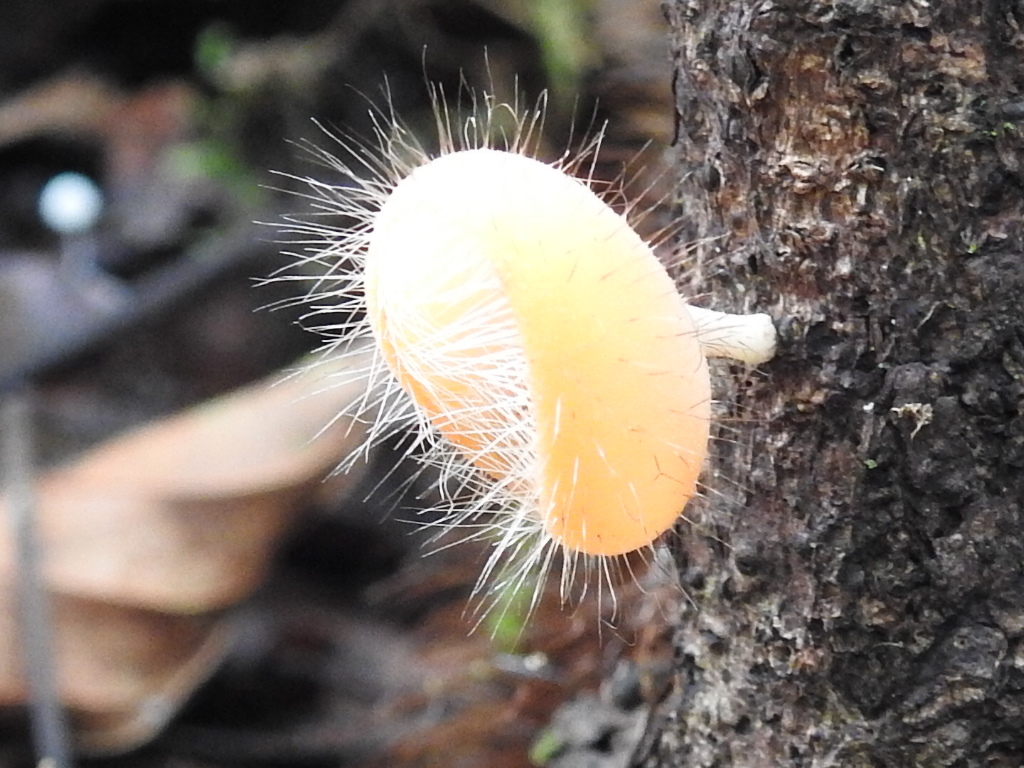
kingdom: Fungi
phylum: Ascomycota
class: Pezizomycetes
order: Pezizales
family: Sarcoscyphaceae
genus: Cookeina
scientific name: Cookeina tricholoma
